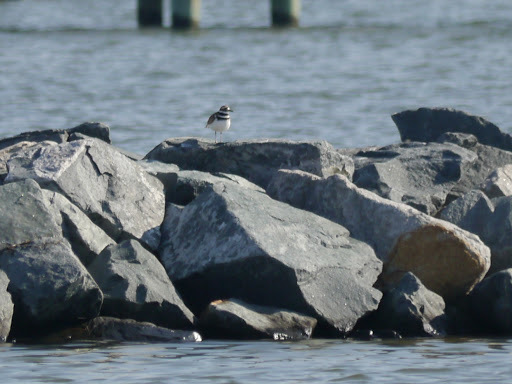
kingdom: Animalia
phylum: Chordata
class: Aves
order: Charadriiformes
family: Charadriidae
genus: Charadrius
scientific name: Charadrius vociferus
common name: Killdeer
